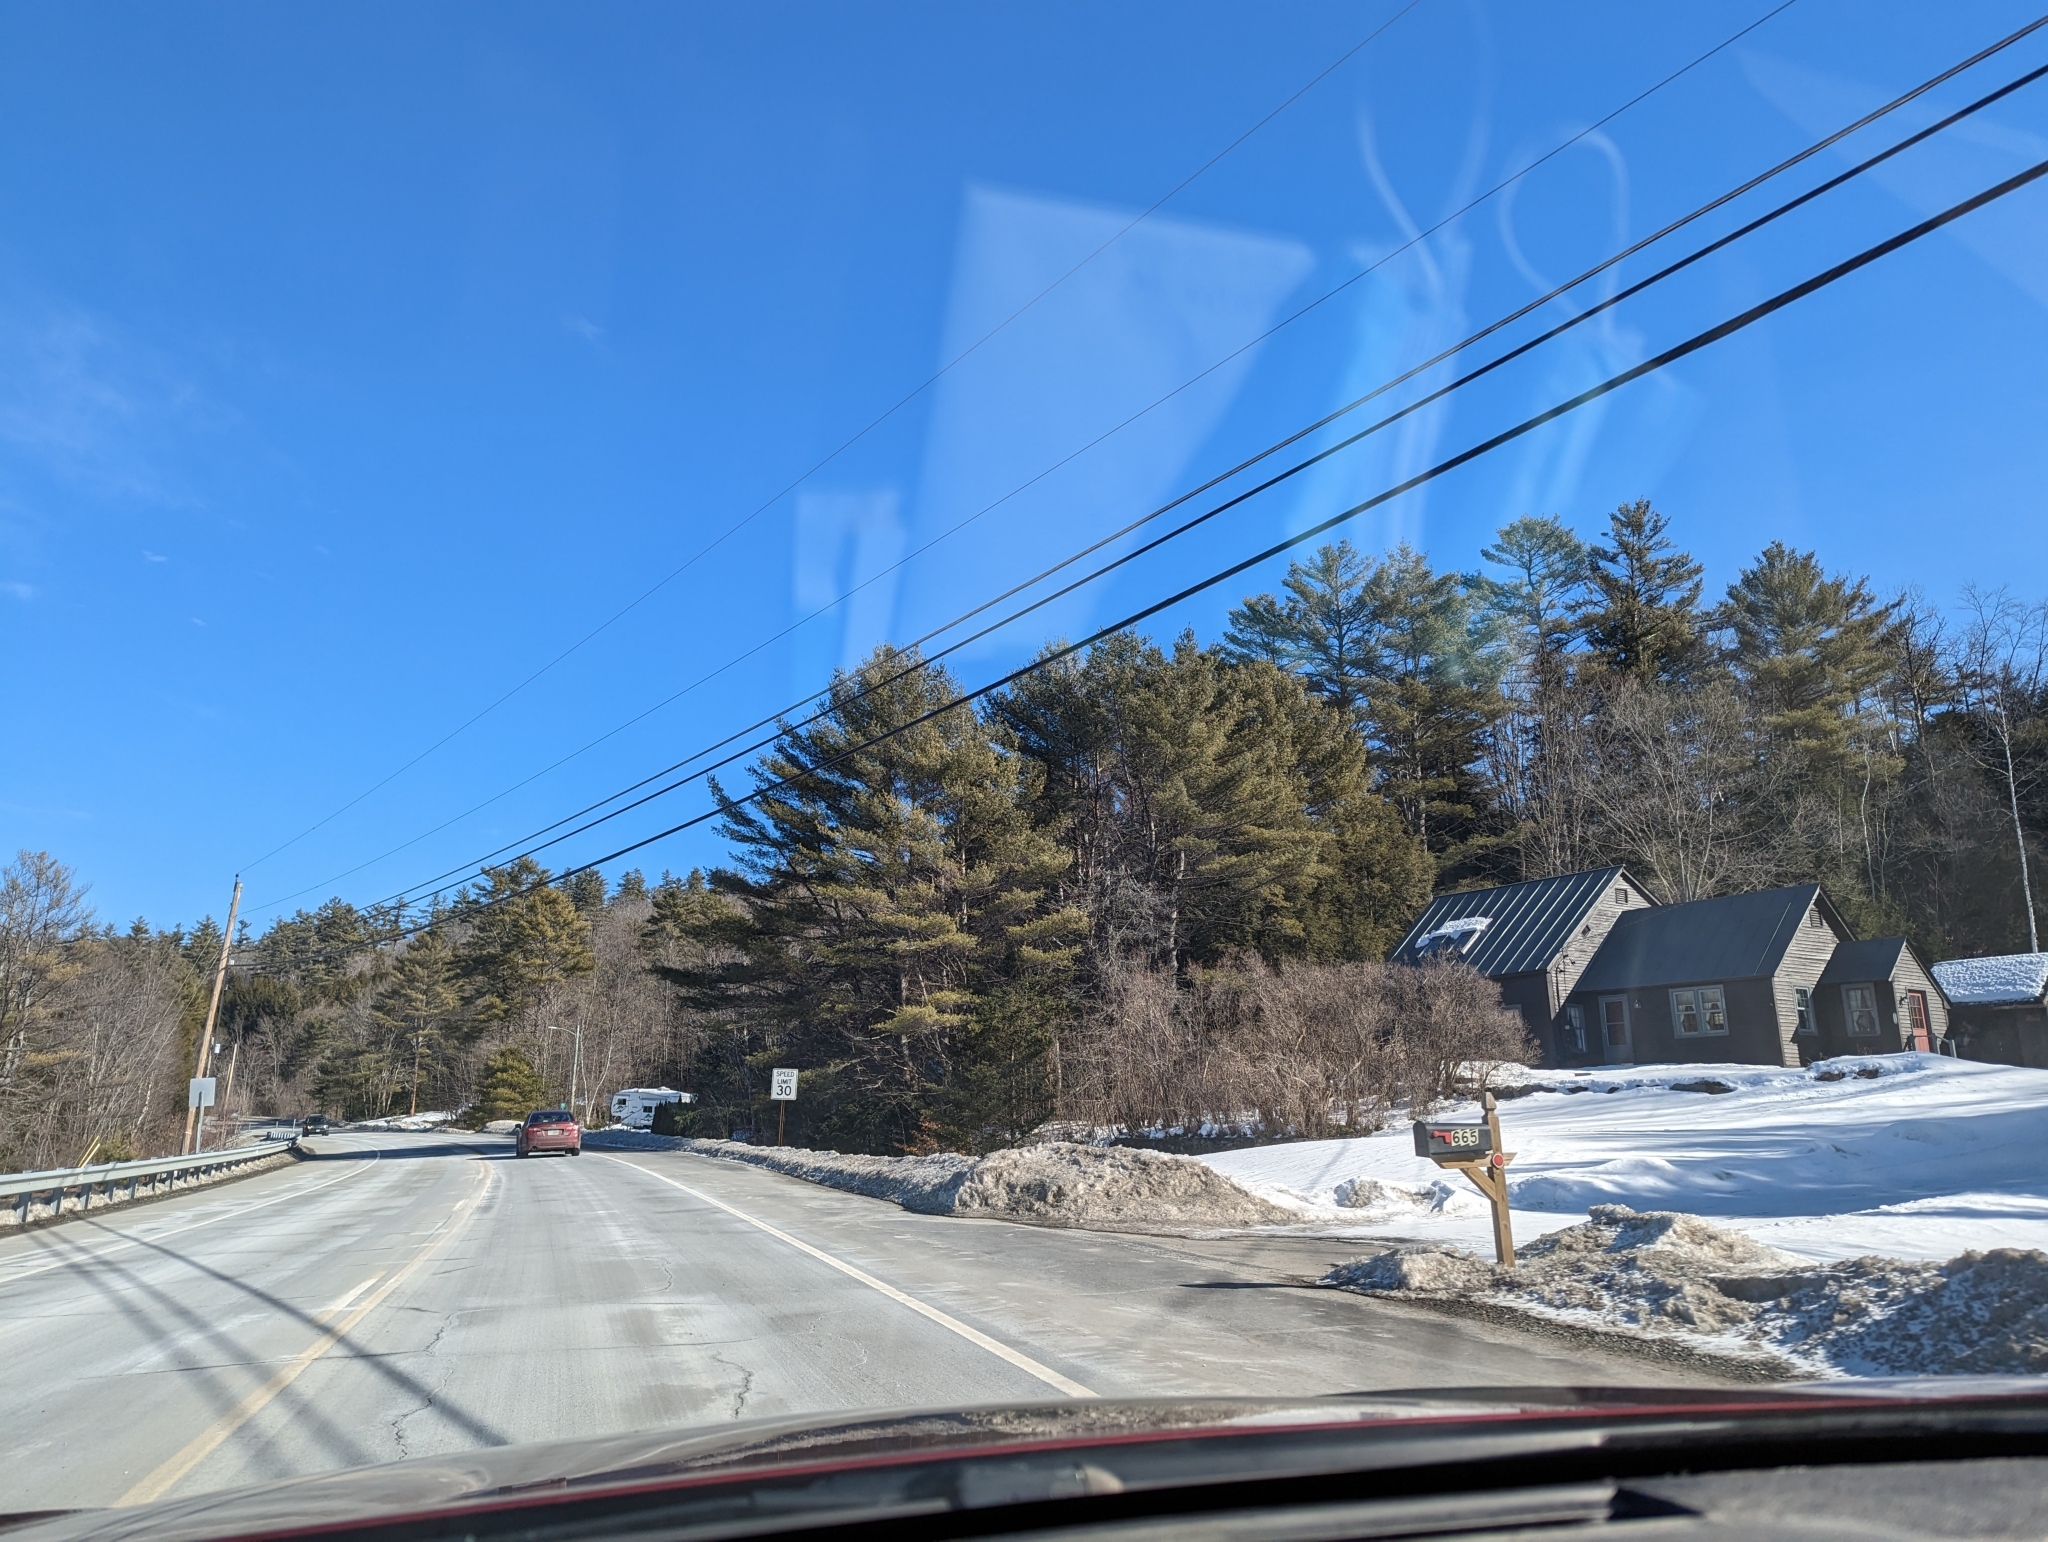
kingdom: Plantae
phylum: Tracheophyta
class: Pinopsida
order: Pinales
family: Pinaceae
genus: Pinus
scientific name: Pinus strobus
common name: Weymouth pine
